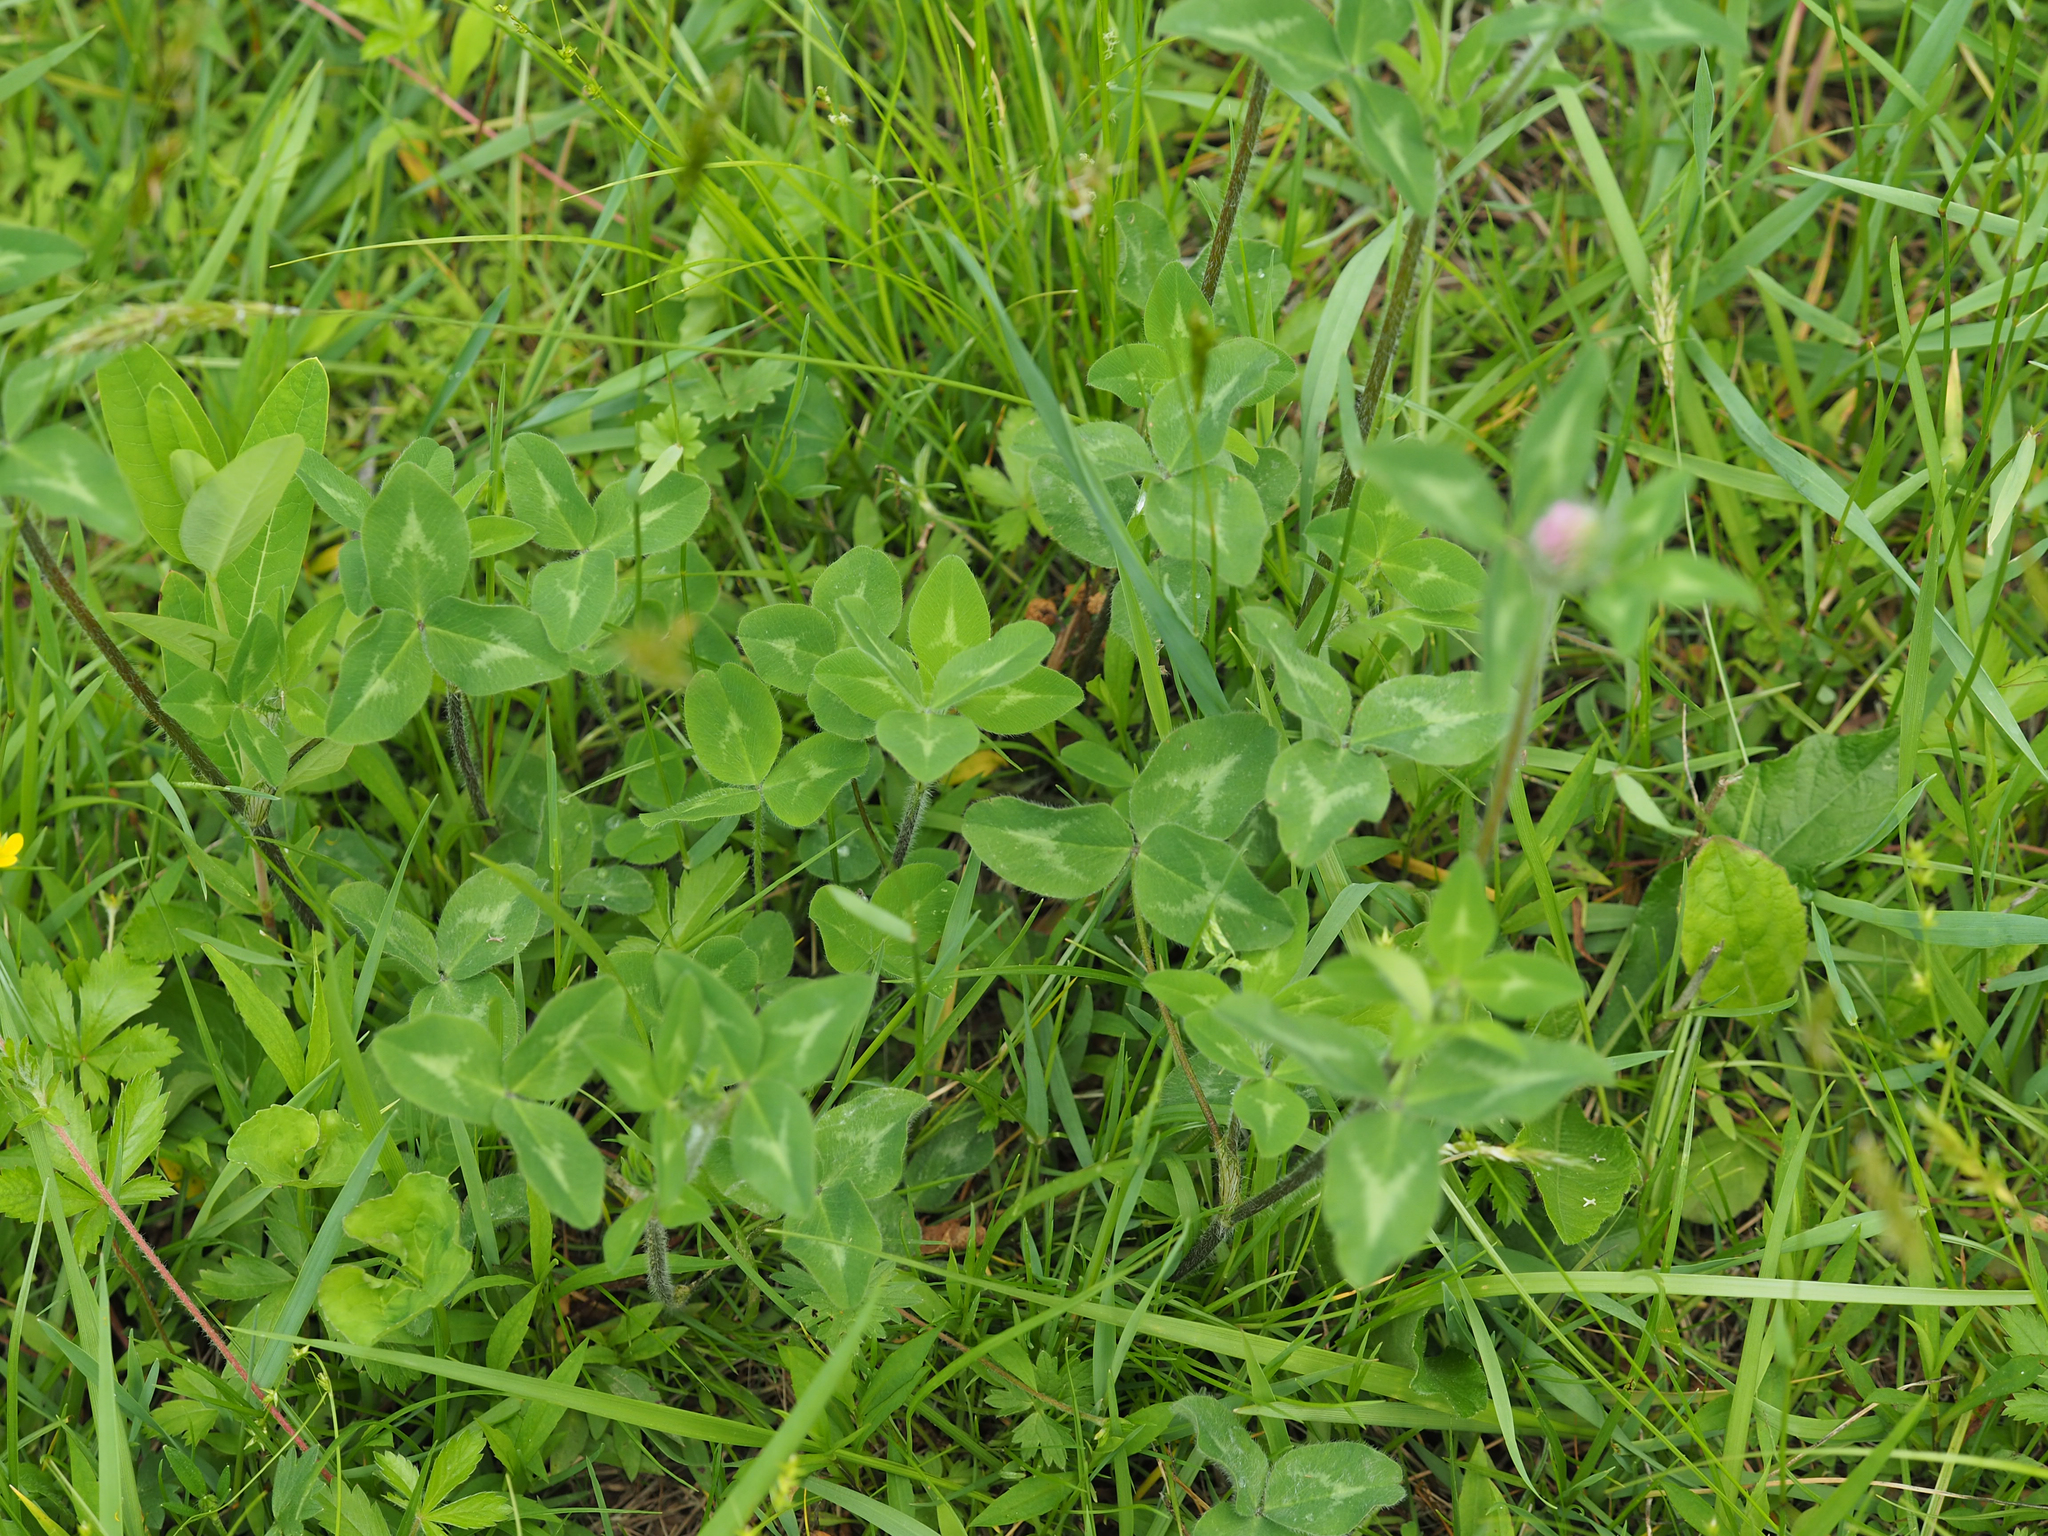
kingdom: Plantae
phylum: Tracheophyta
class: Magnoliopsida
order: Fabales
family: Fabaceae
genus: Trifolium
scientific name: Trifolium pratense
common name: Red clover
